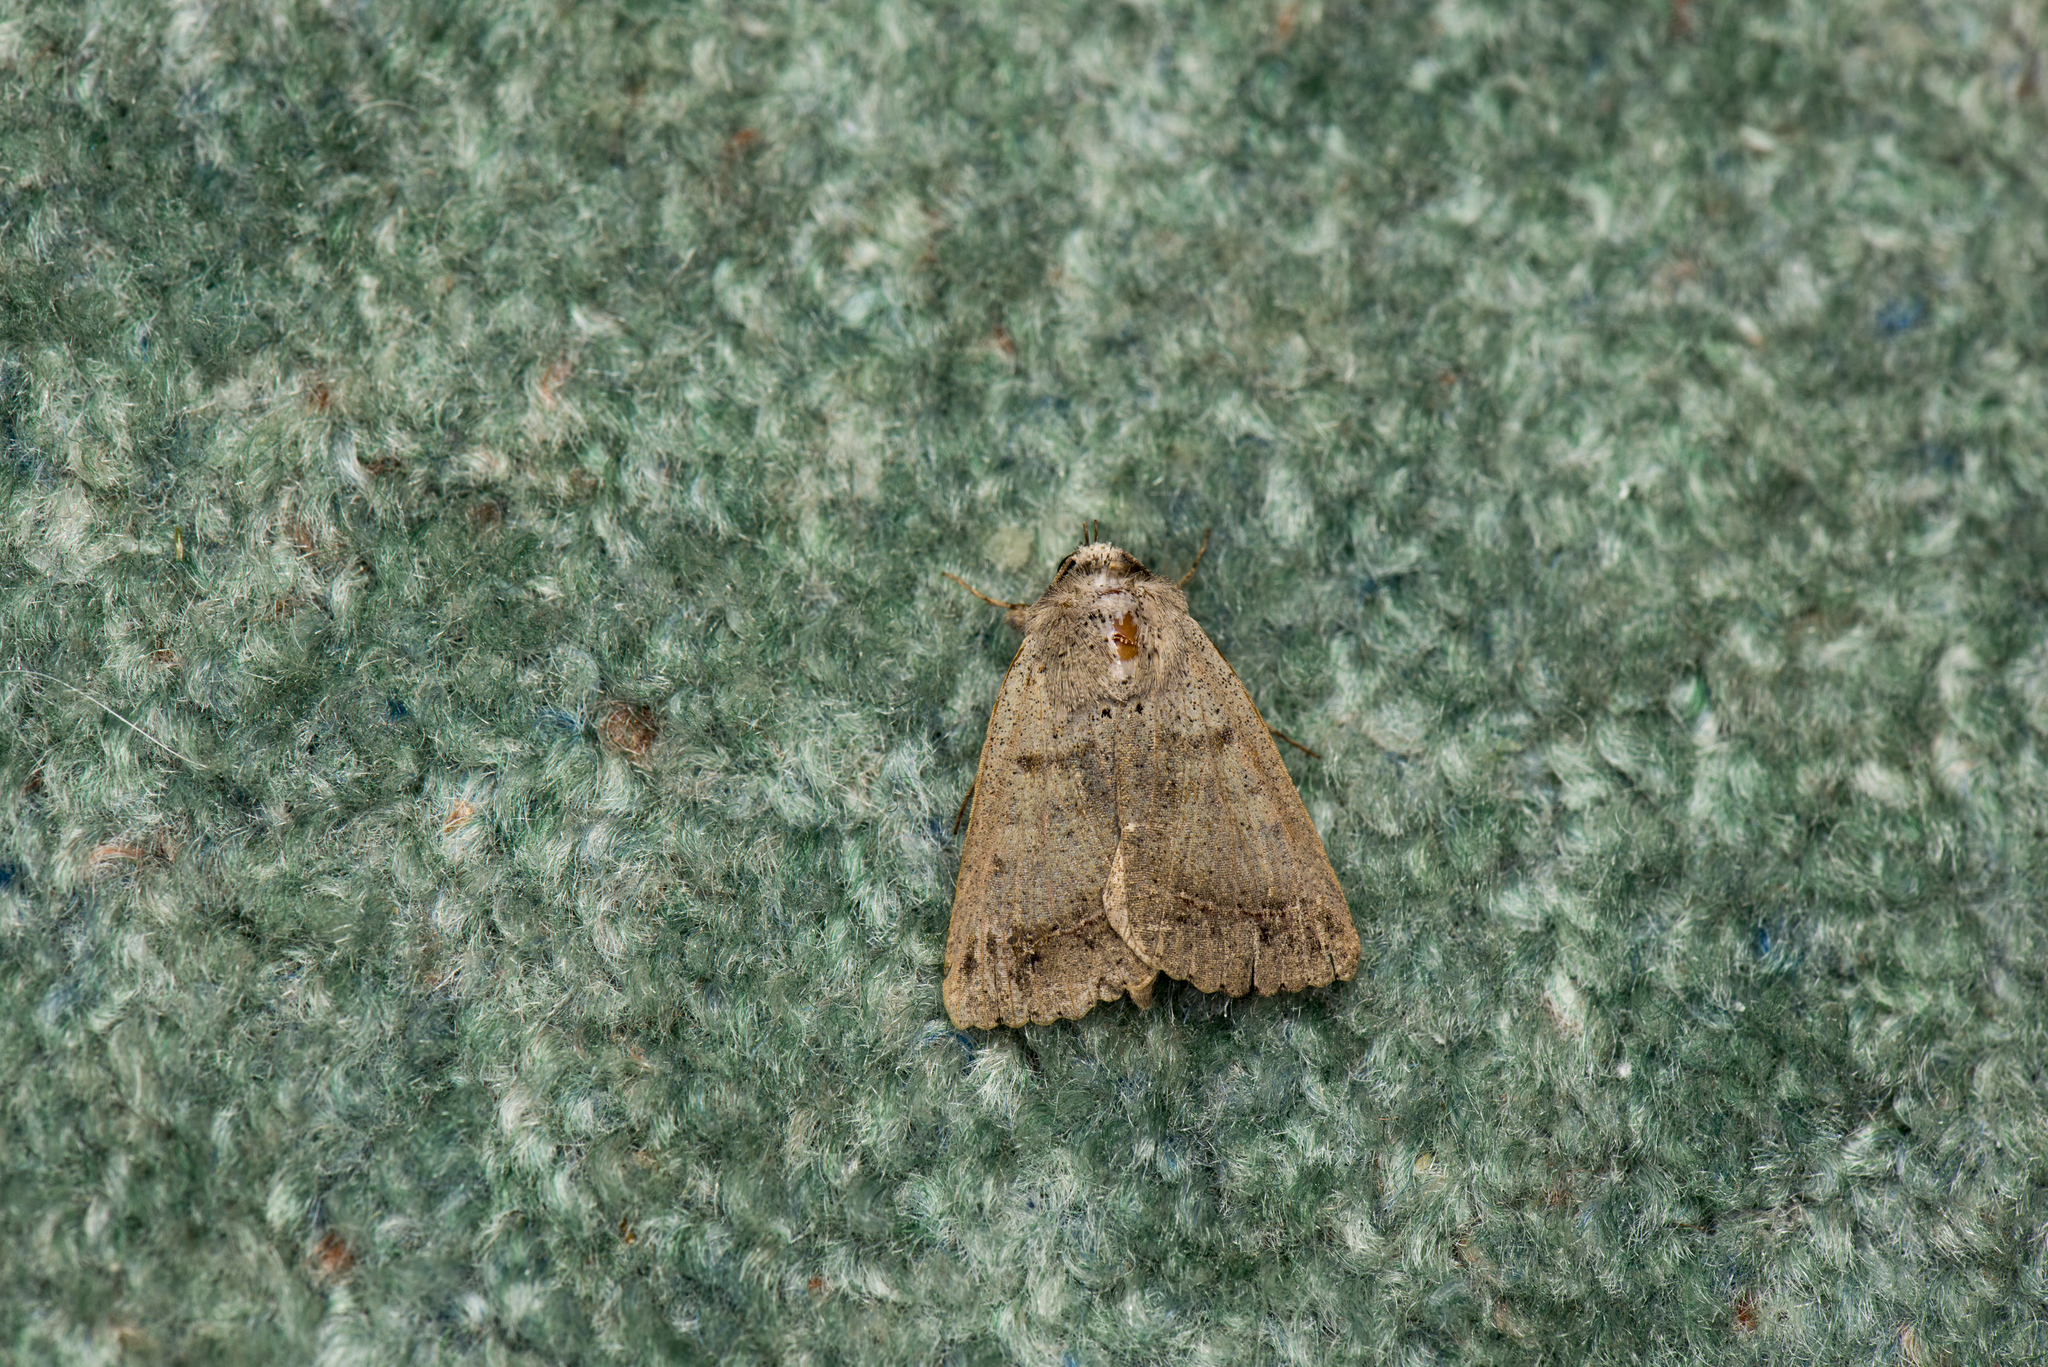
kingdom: Animalia
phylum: Arthropoda
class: Insecta
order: Lepidoptera
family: Erebidae
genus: Pantydia
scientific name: Pantydia sparsa
